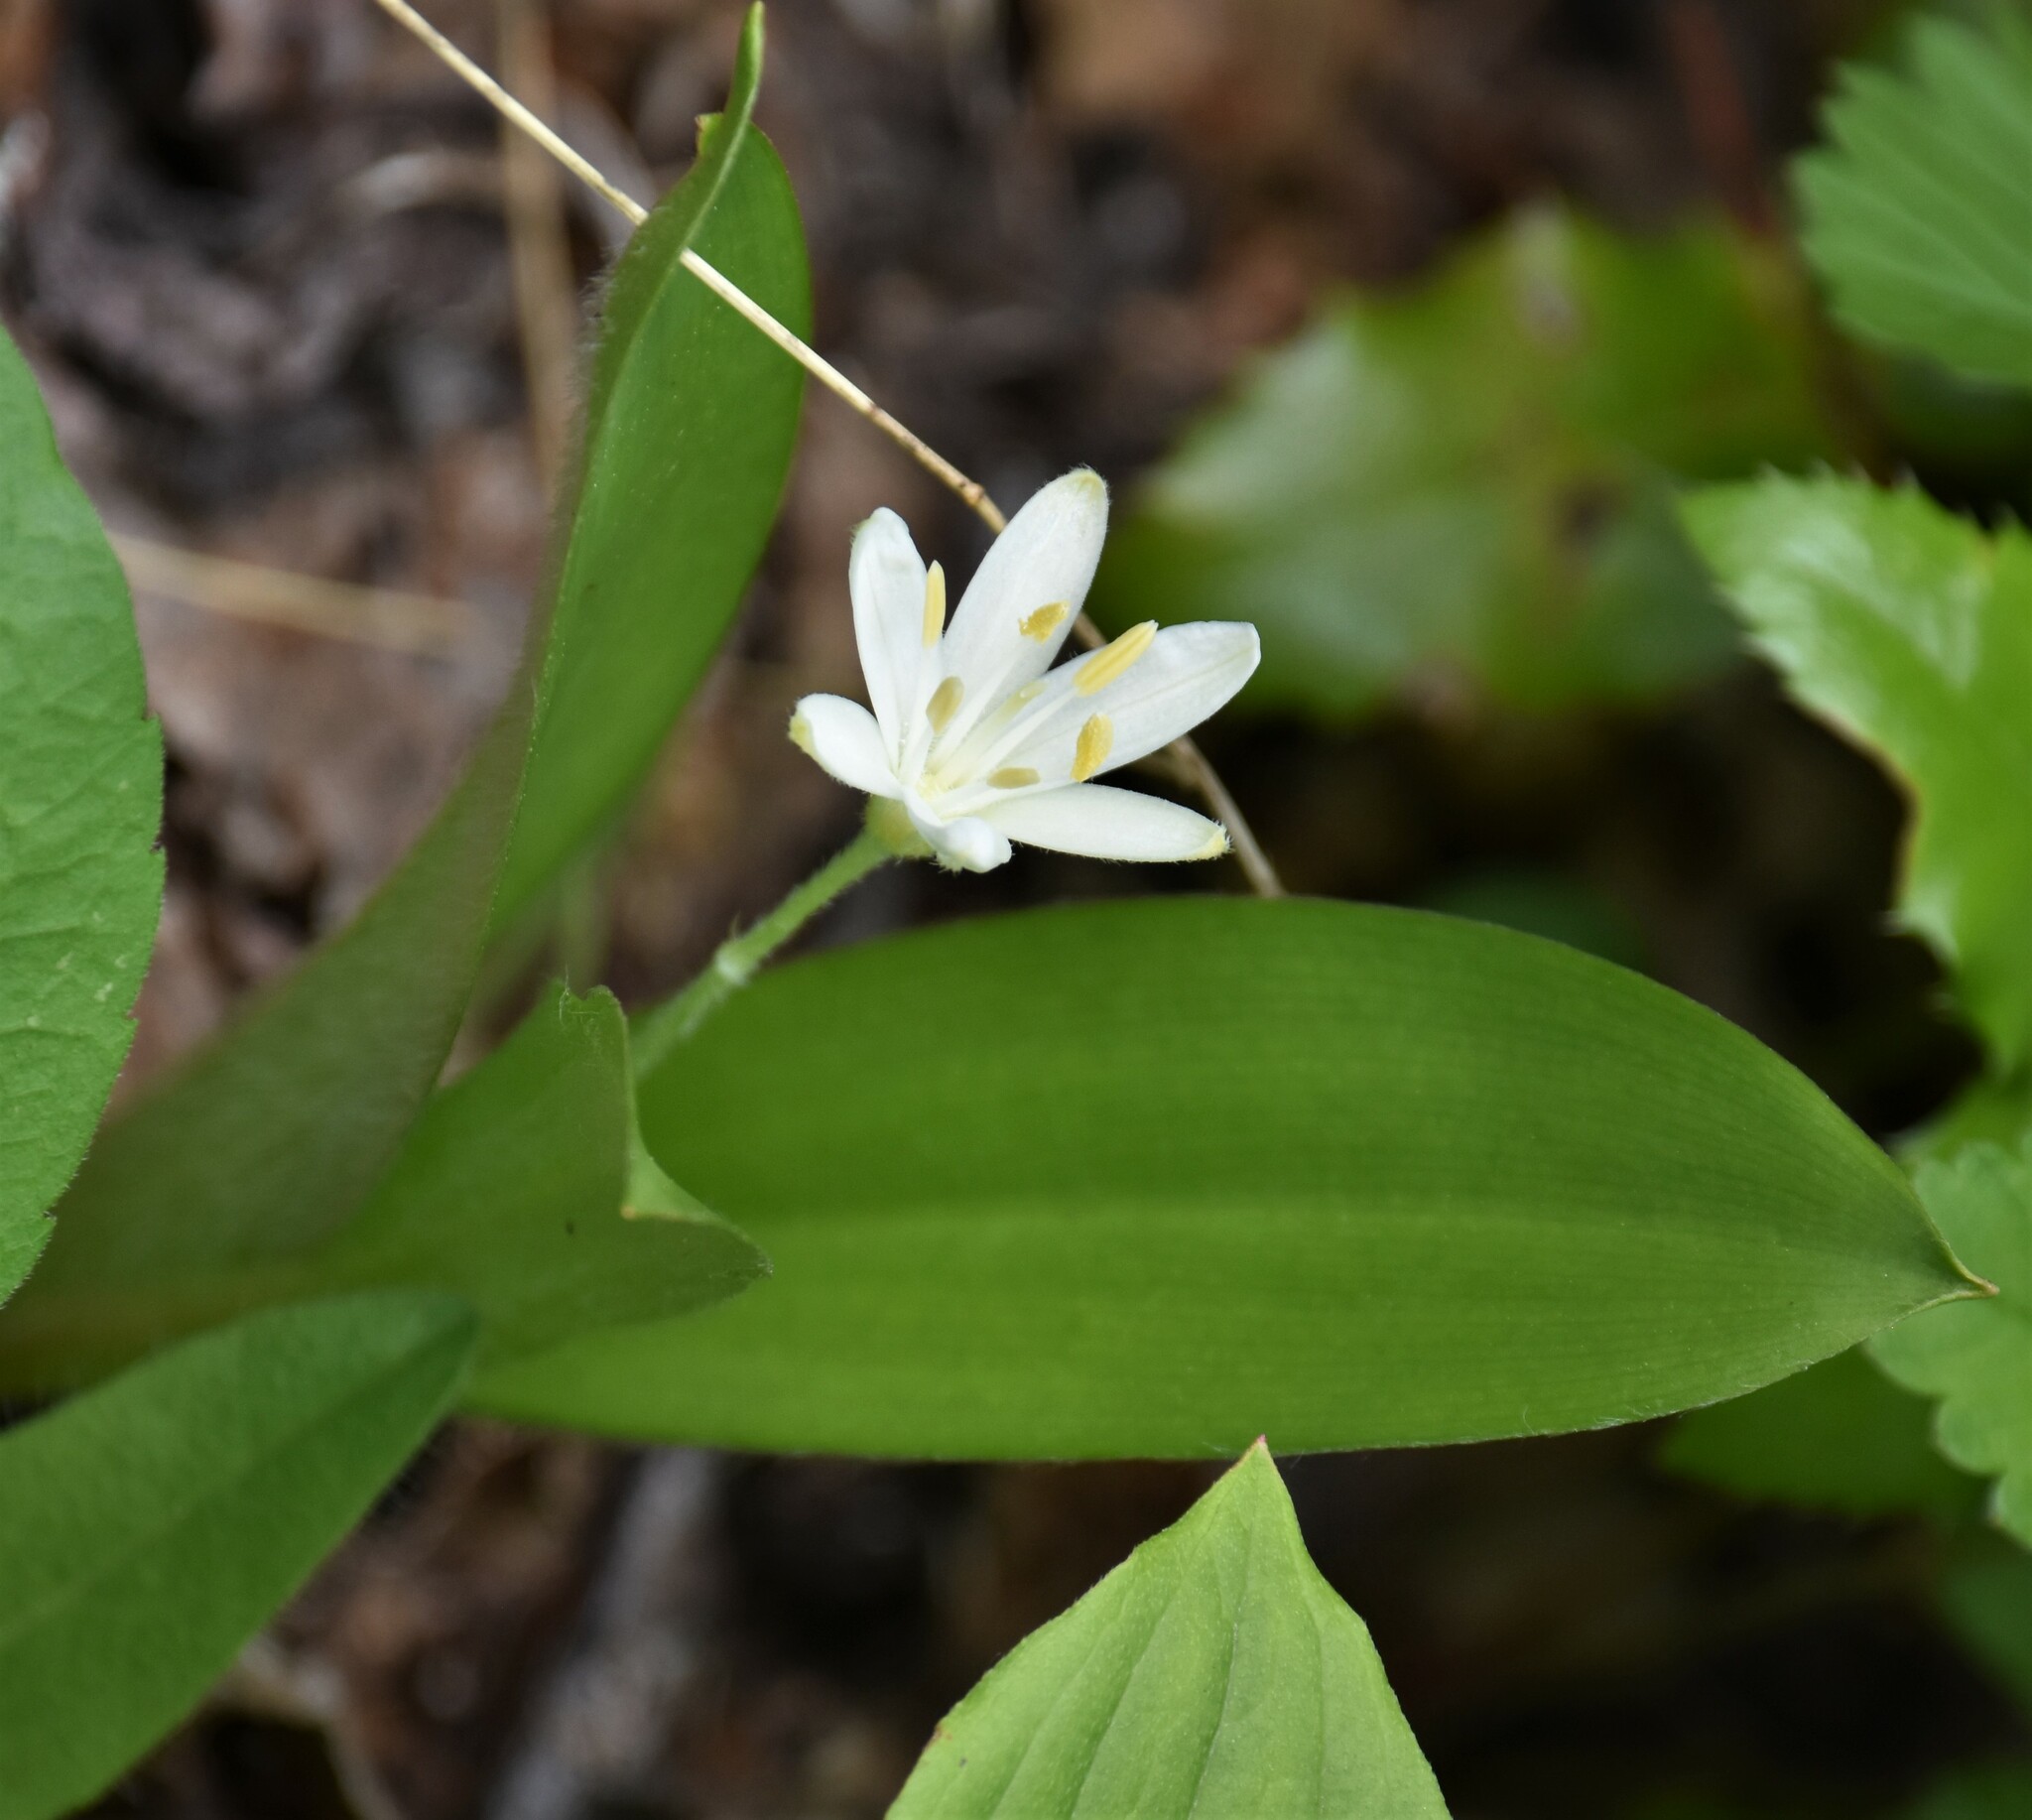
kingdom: Plantae
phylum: Tracheophyta
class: Liliopsida
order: Liliales
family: Liliaceae
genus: Clintonia
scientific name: Clintonia uniflora
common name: Queen's cup
